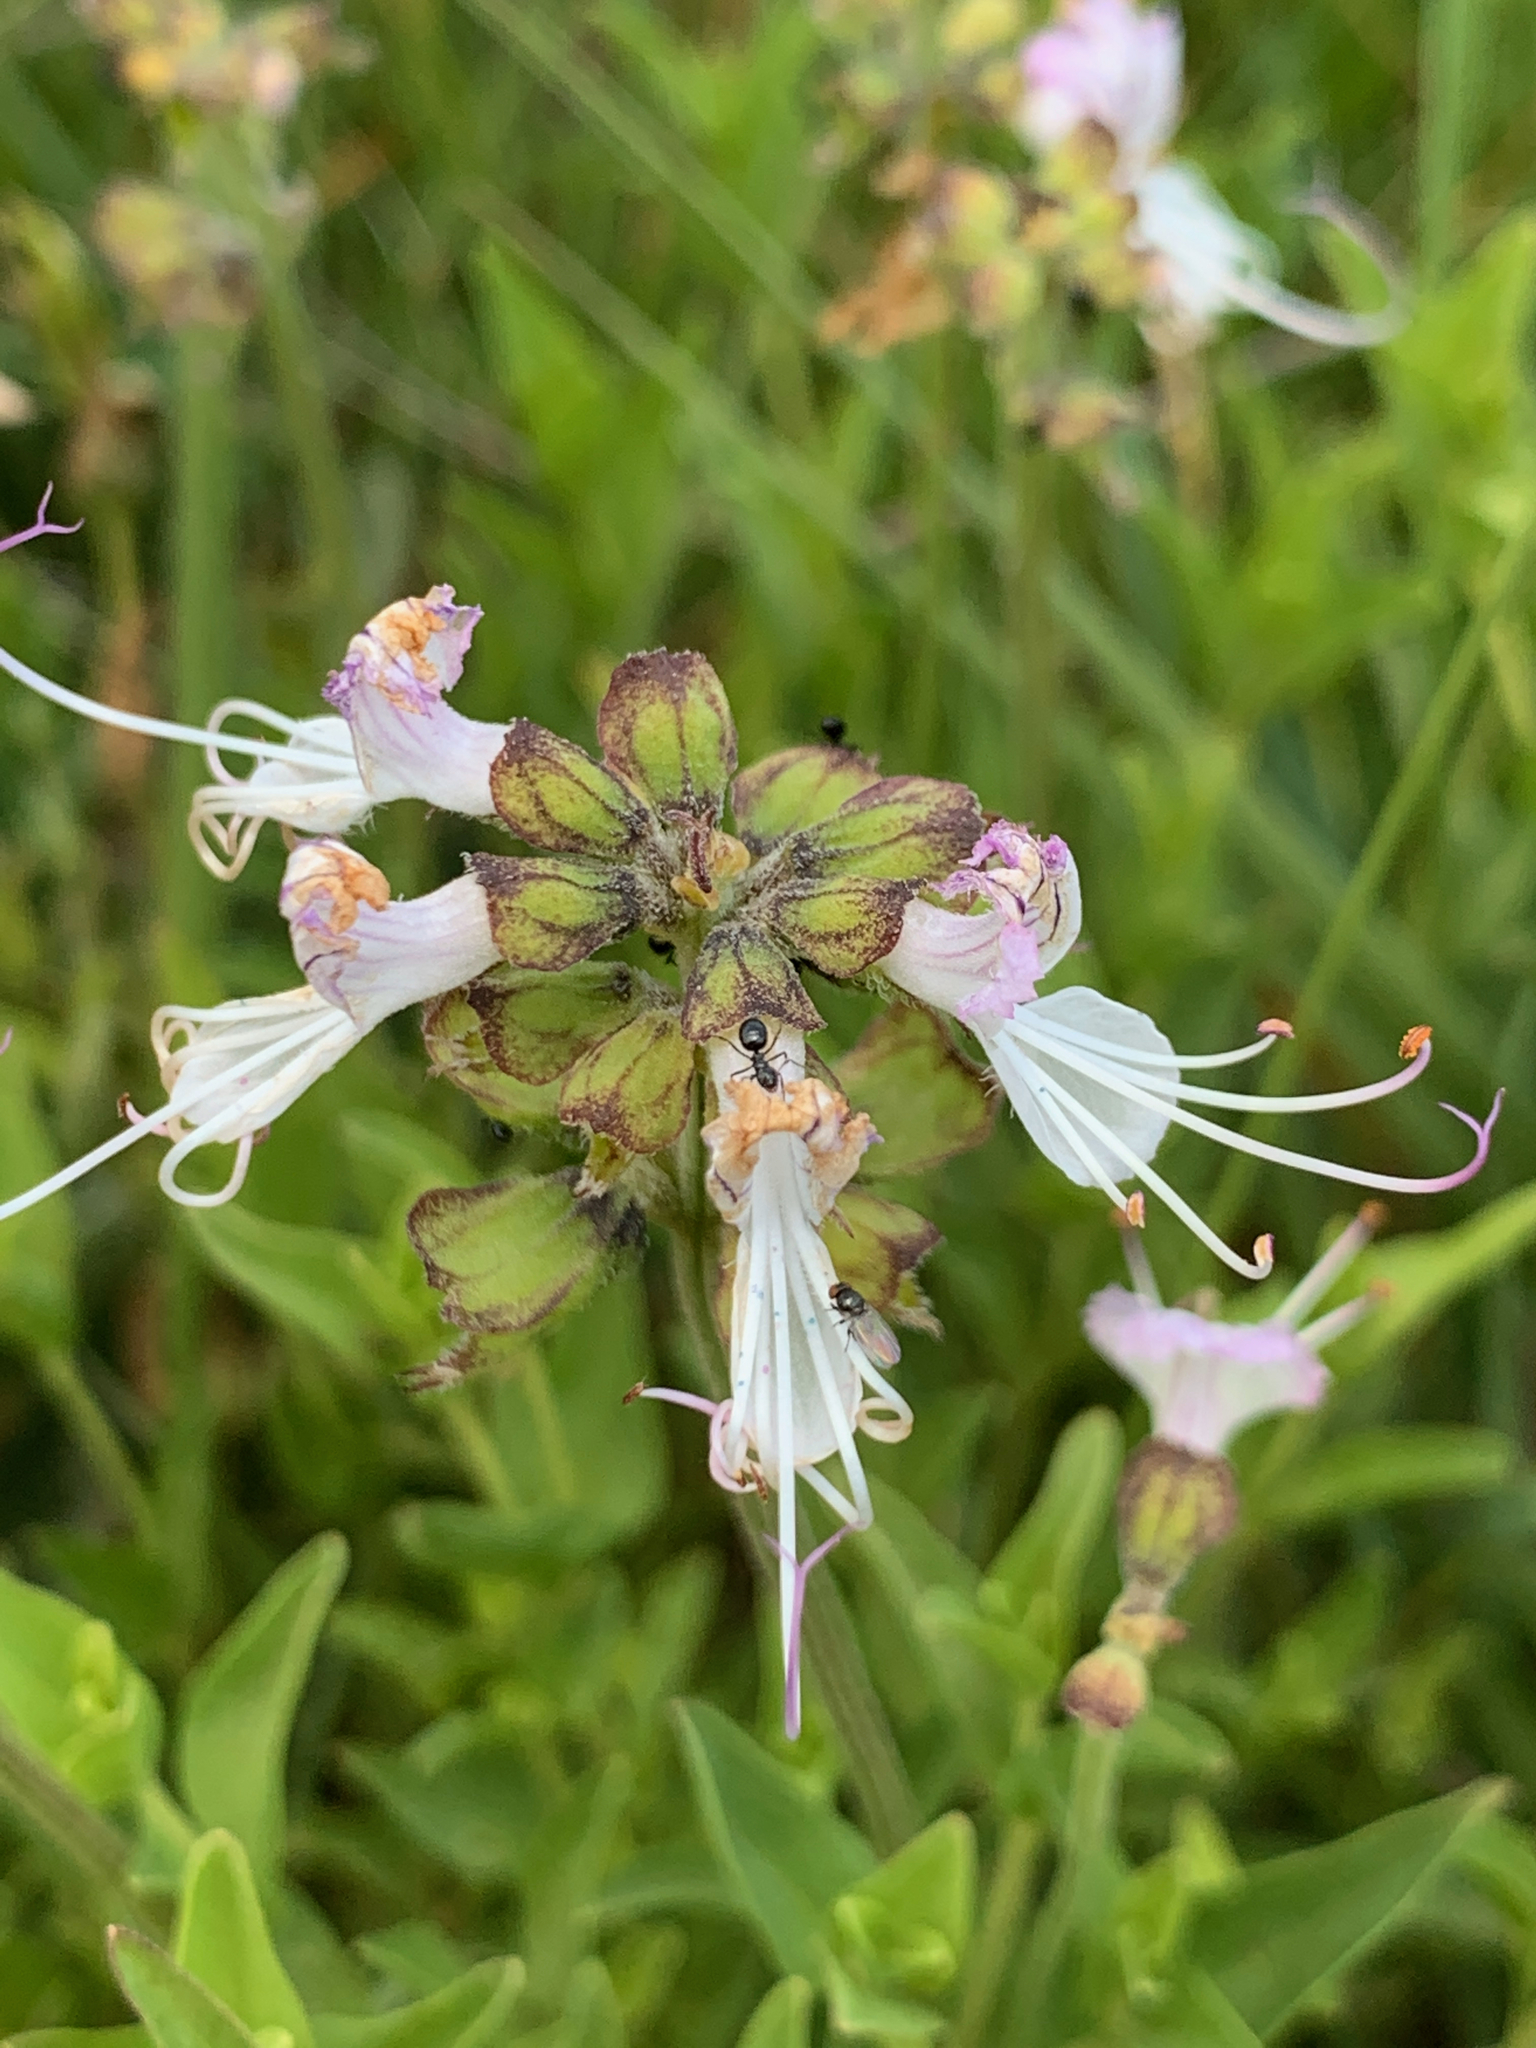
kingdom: Plantae
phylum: Tracheophyta
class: Magnoliopsida
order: Lamiales
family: Lamiaceae
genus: Ocimum
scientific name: Ocimum obovatum
